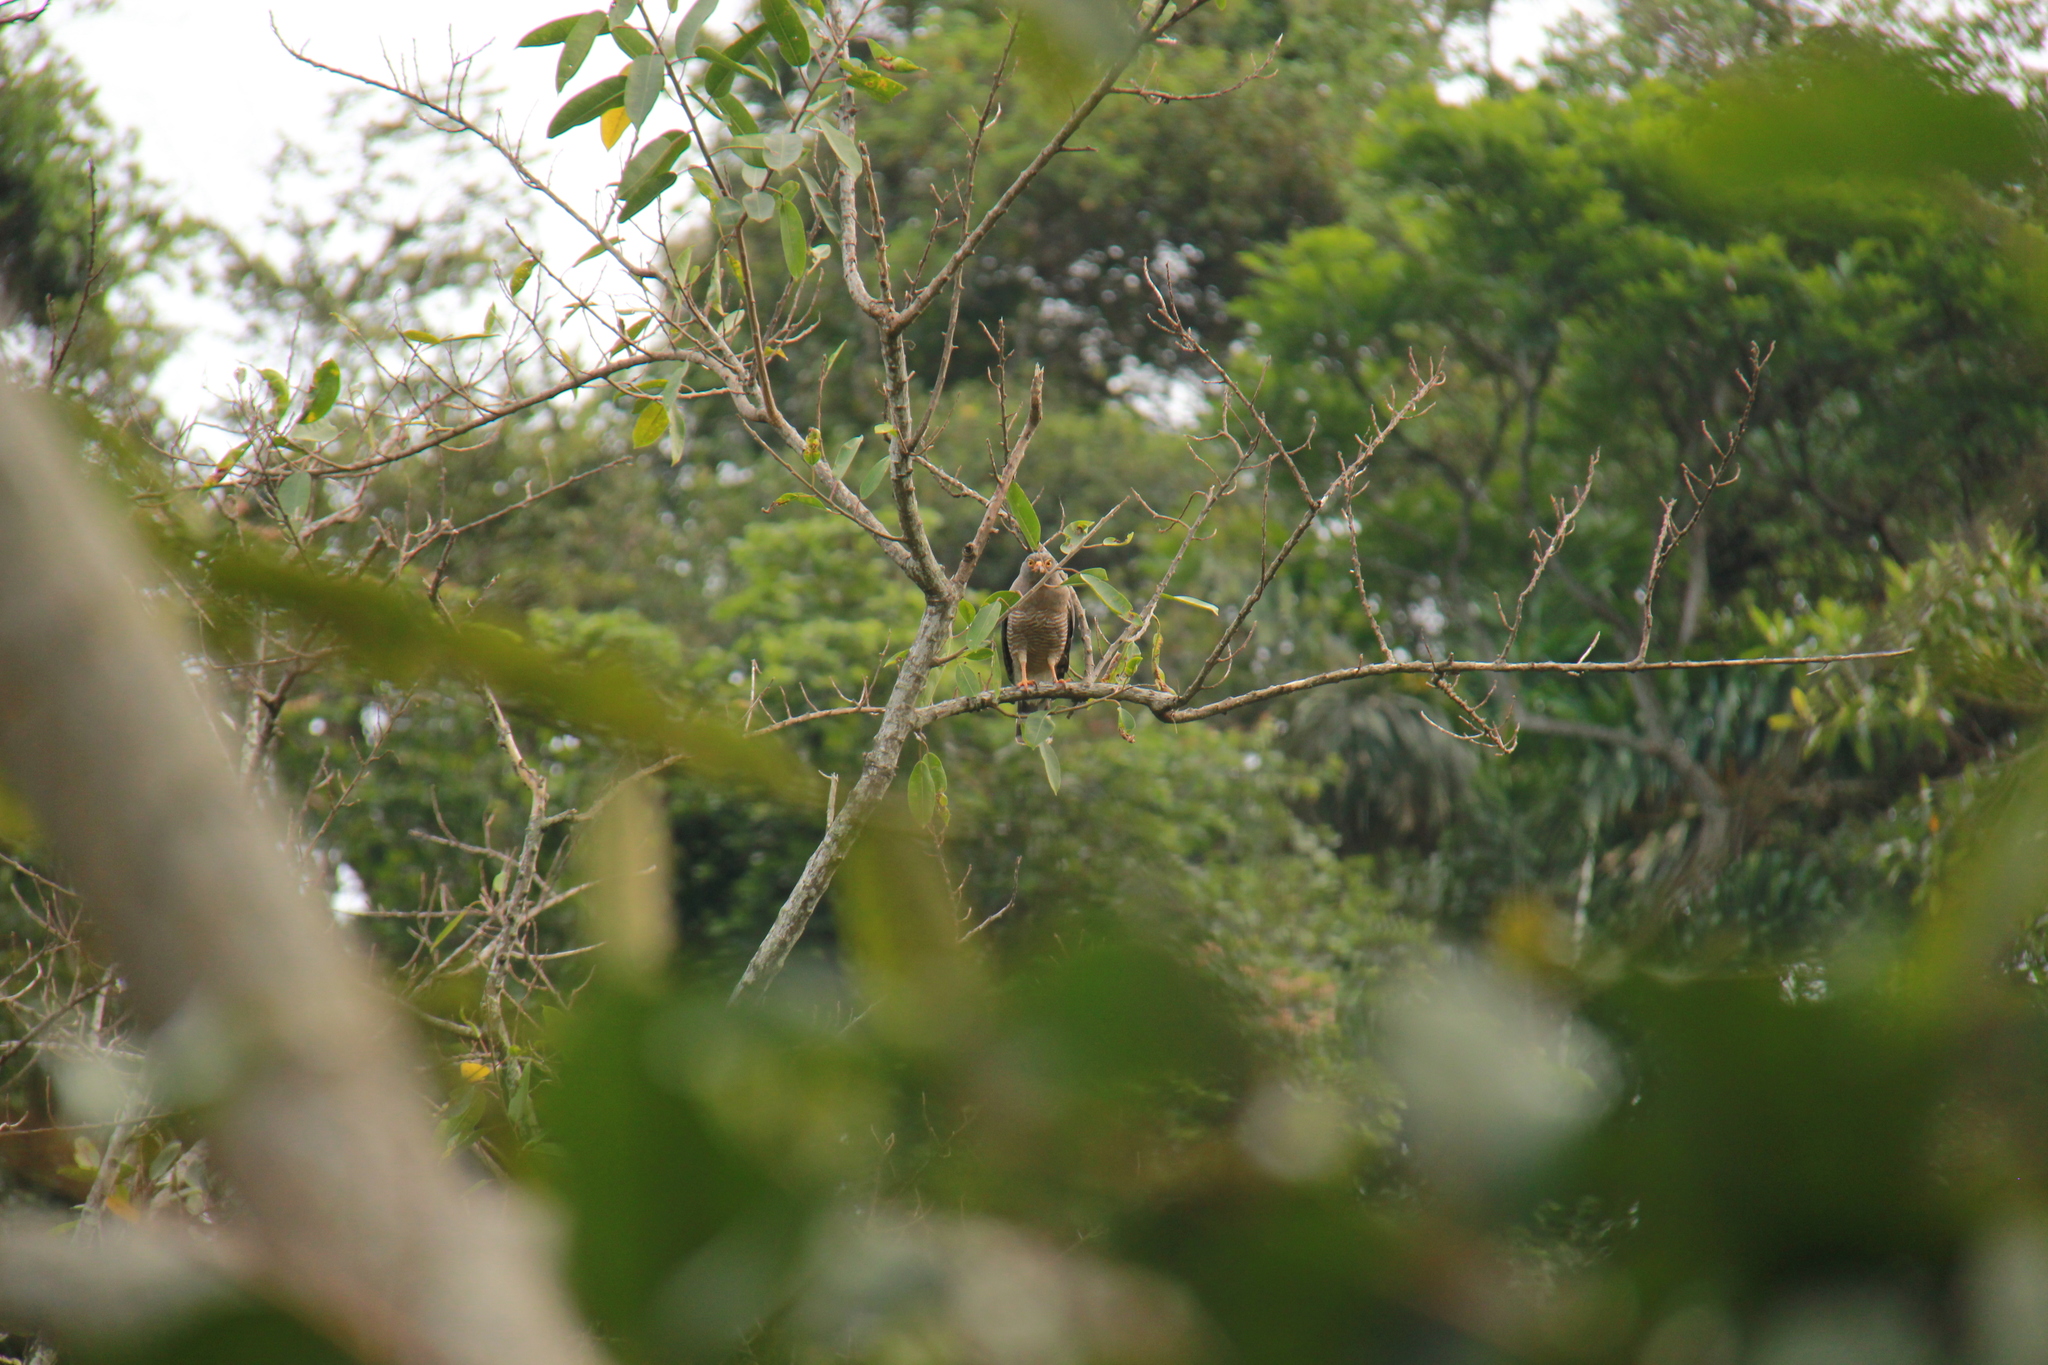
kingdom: Animalia
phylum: Chordata
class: Aves
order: Accipitriformes
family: Accipitridae
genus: Rupornis
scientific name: Rupornis magnirostris
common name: Roadside hawk
